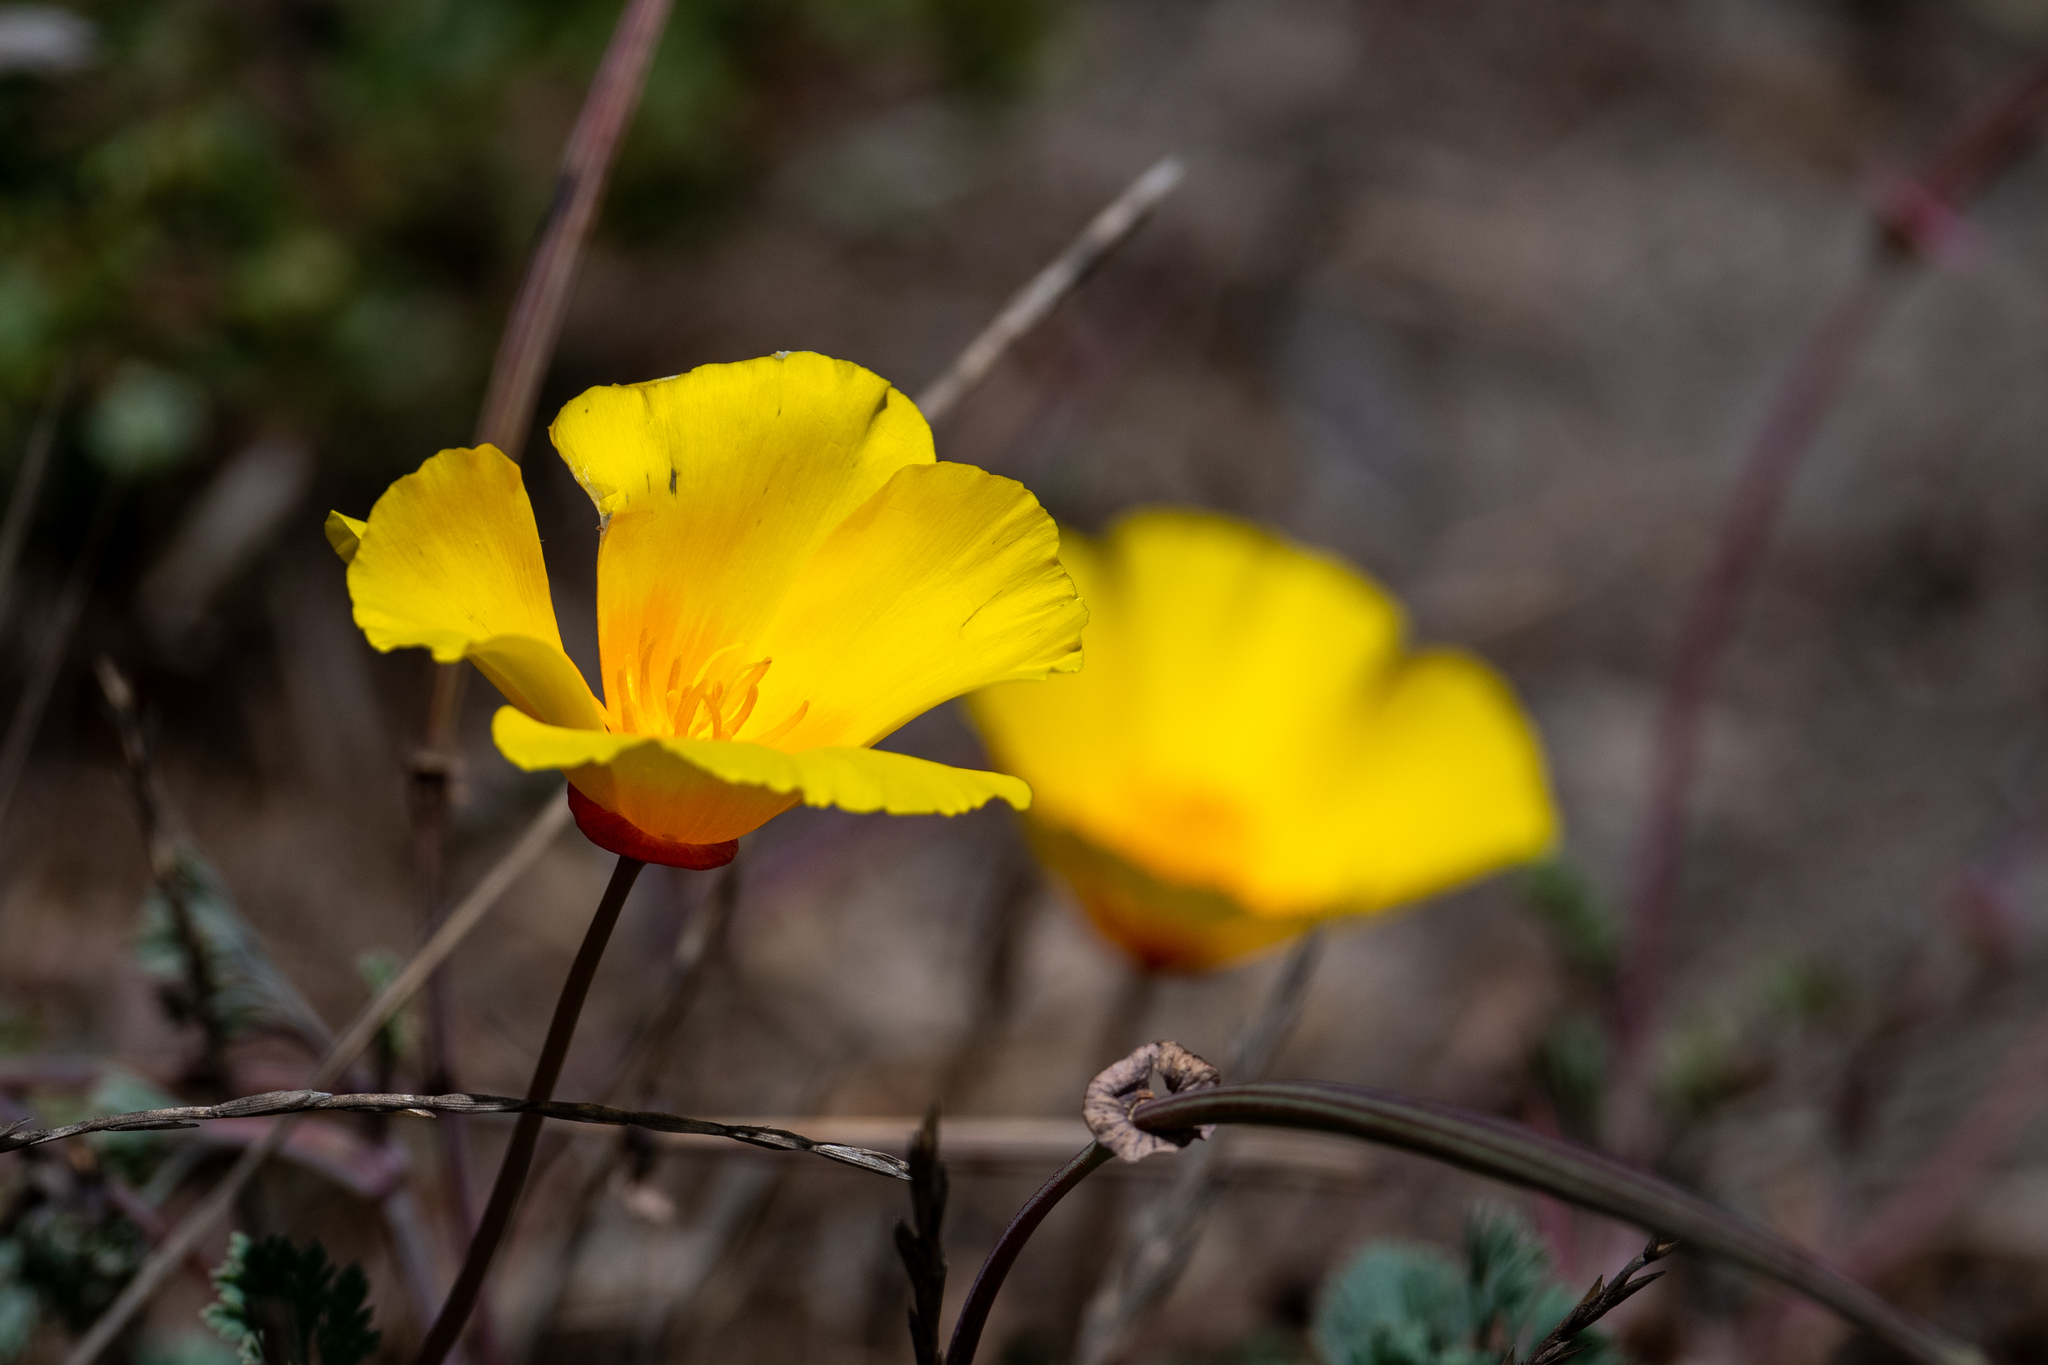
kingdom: Plantae
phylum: Tracheophyta
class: Magnoliopsida
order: Ranunculales
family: Papaveraceae
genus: Eschscholzia
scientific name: Eschscholzia californica
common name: California poppy
